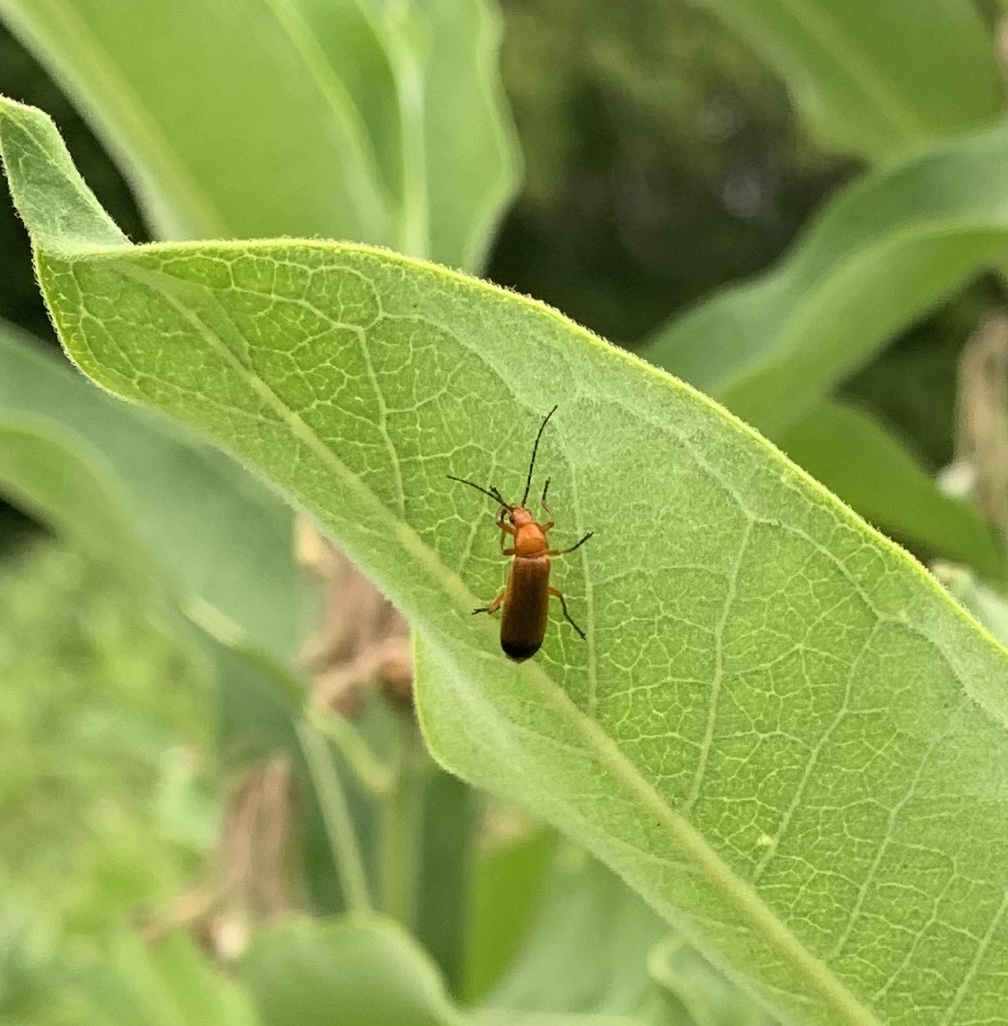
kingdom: Animalia
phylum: Arthropoda
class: Insecta
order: Coleoptera
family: Cantharidae
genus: Rhagonycha
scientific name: Rhagonycha fulva
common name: Common red soldier beetle
